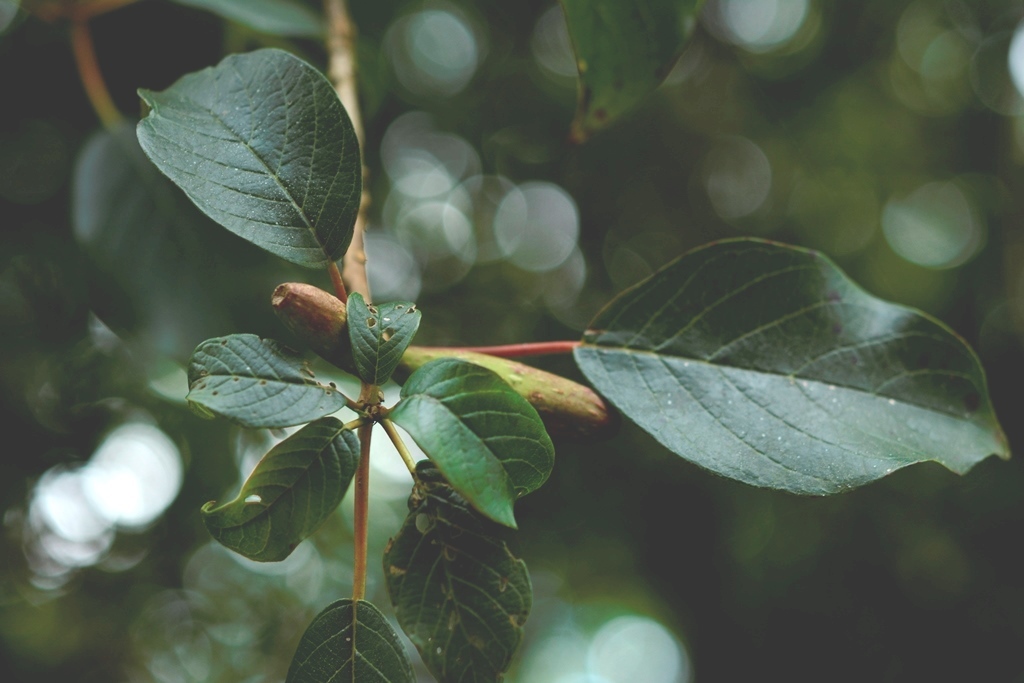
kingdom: Plantae
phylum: Tracheophyta
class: Magnoliopsida
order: Myrtales
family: Onagraceae
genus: Hauya
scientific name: Hauya elegans
